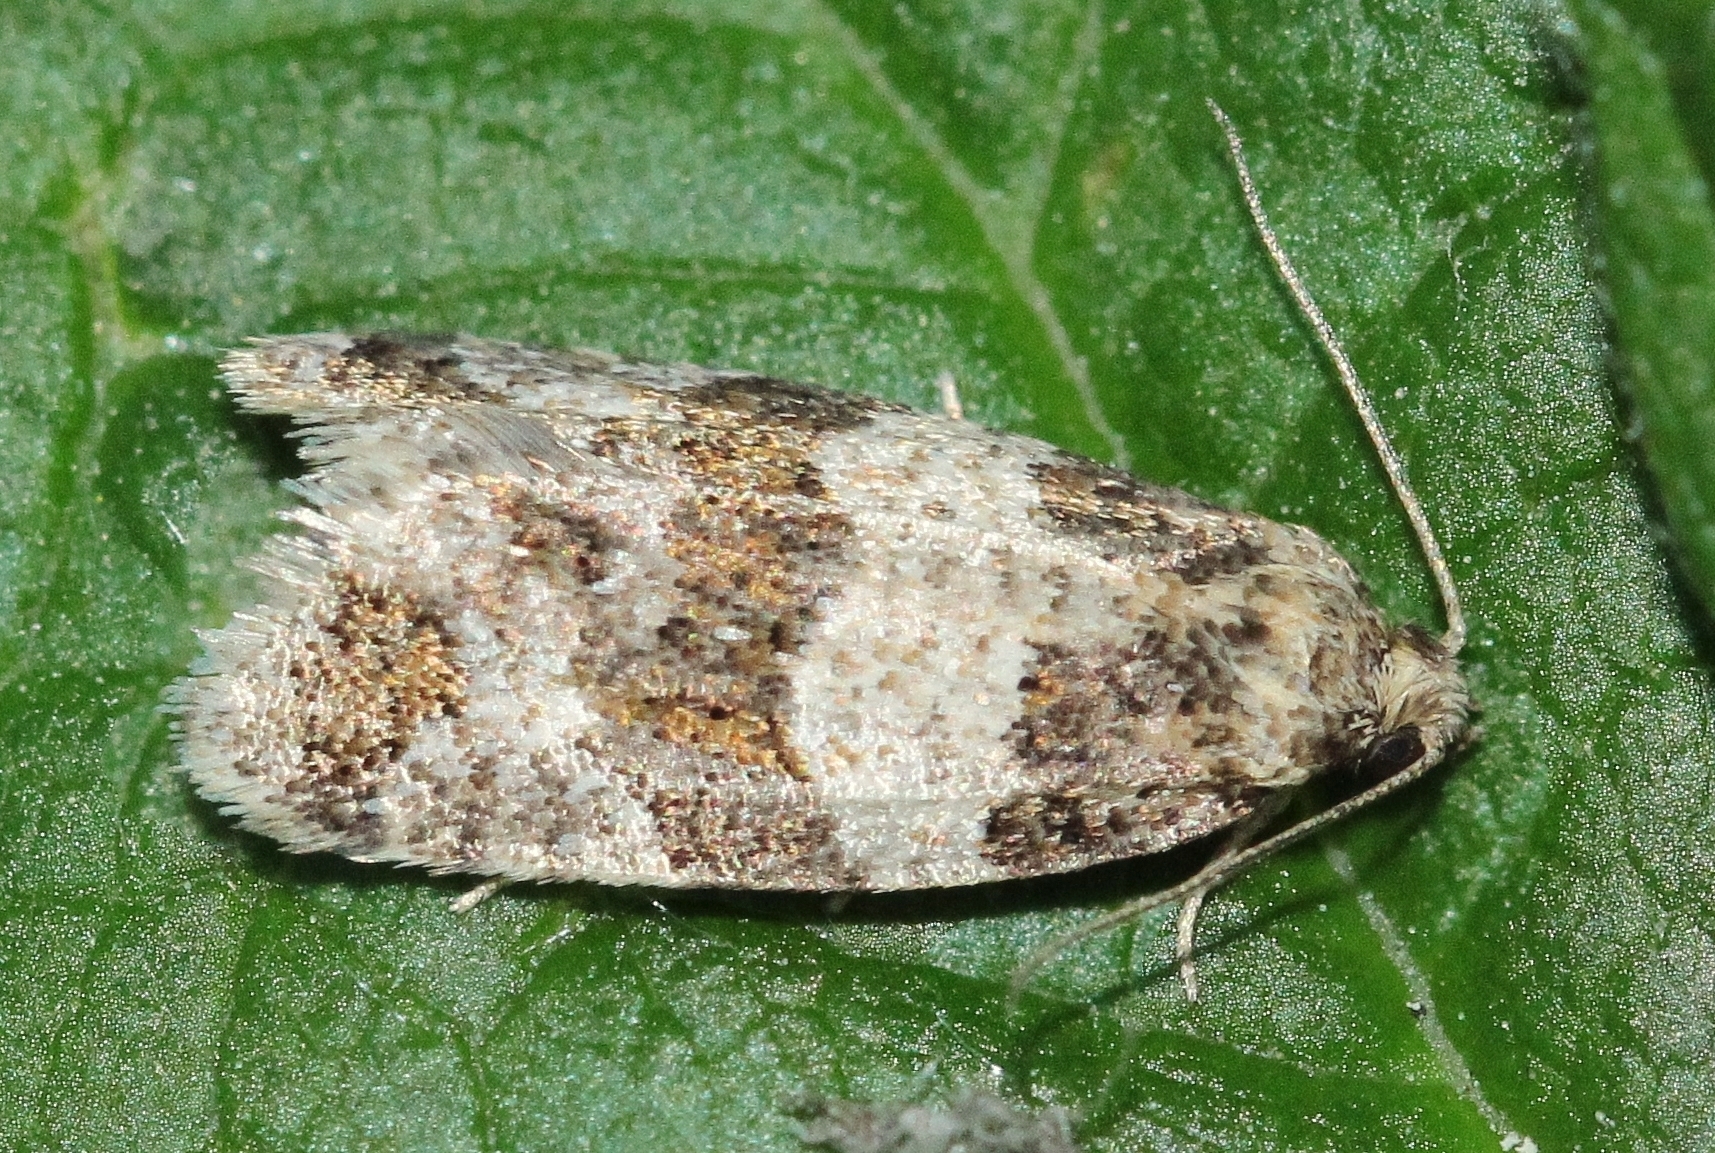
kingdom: Animalia
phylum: Arthropoda
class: Insecta
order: Lepidoptera
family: Tortricidae
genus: Isotrias
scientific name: Isotrias hybridana
